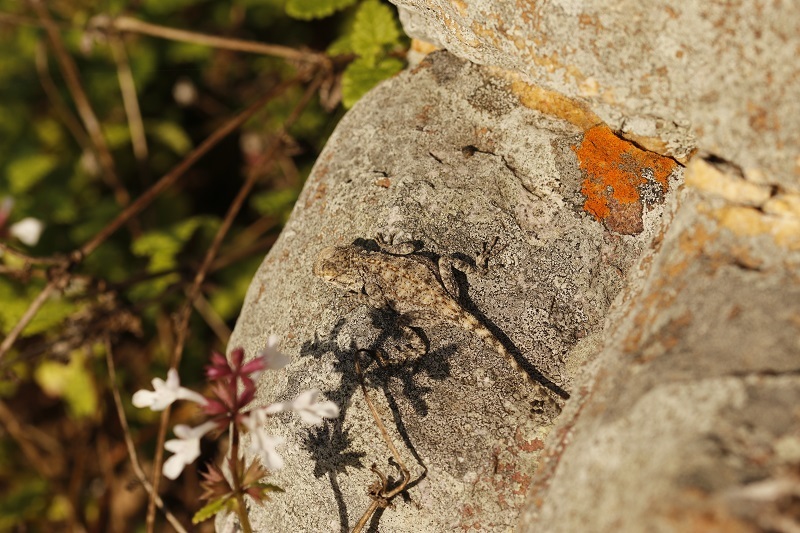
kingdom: Animalia
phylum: Chordata
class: Squamata
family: Agamidae
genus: Agama
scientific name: Agama atra
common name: Southern african rock agama
